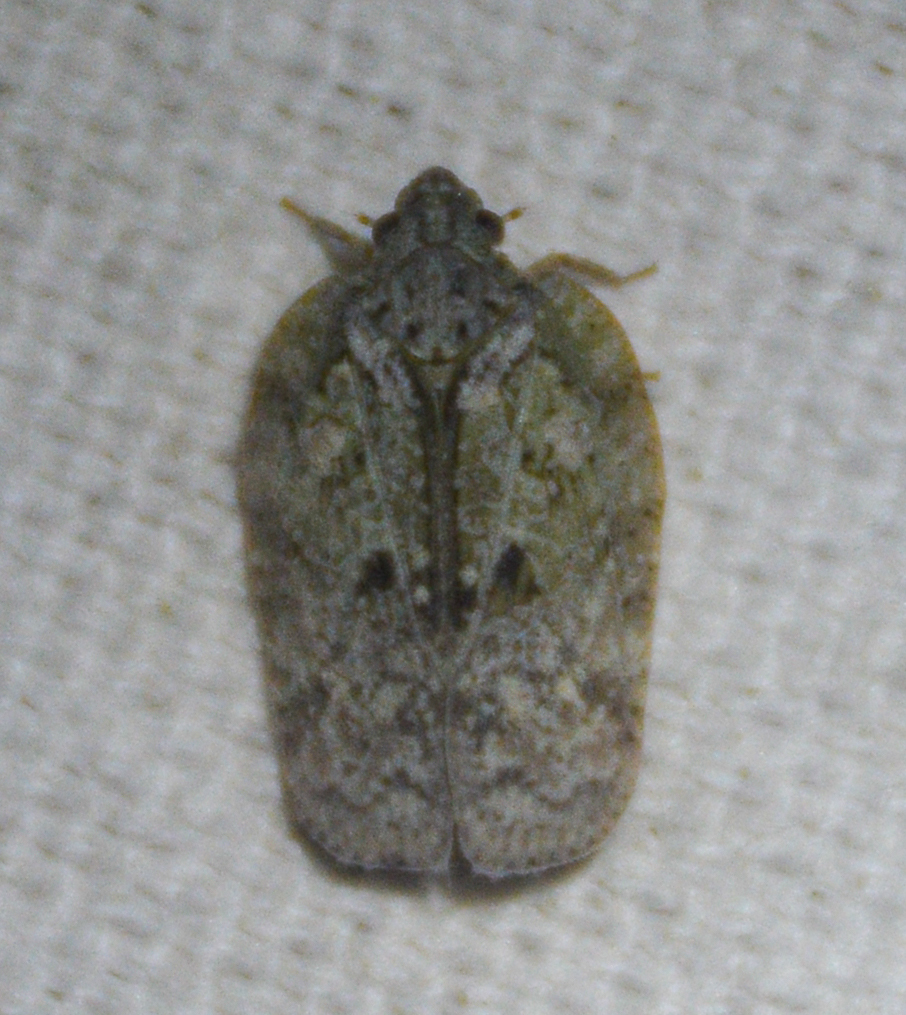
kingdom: Animalia
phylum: Arthropoda
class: Insecta
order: Hemiptera
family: Flatidae
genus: Flatoidinus
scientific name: Flatoidinus punctatus
